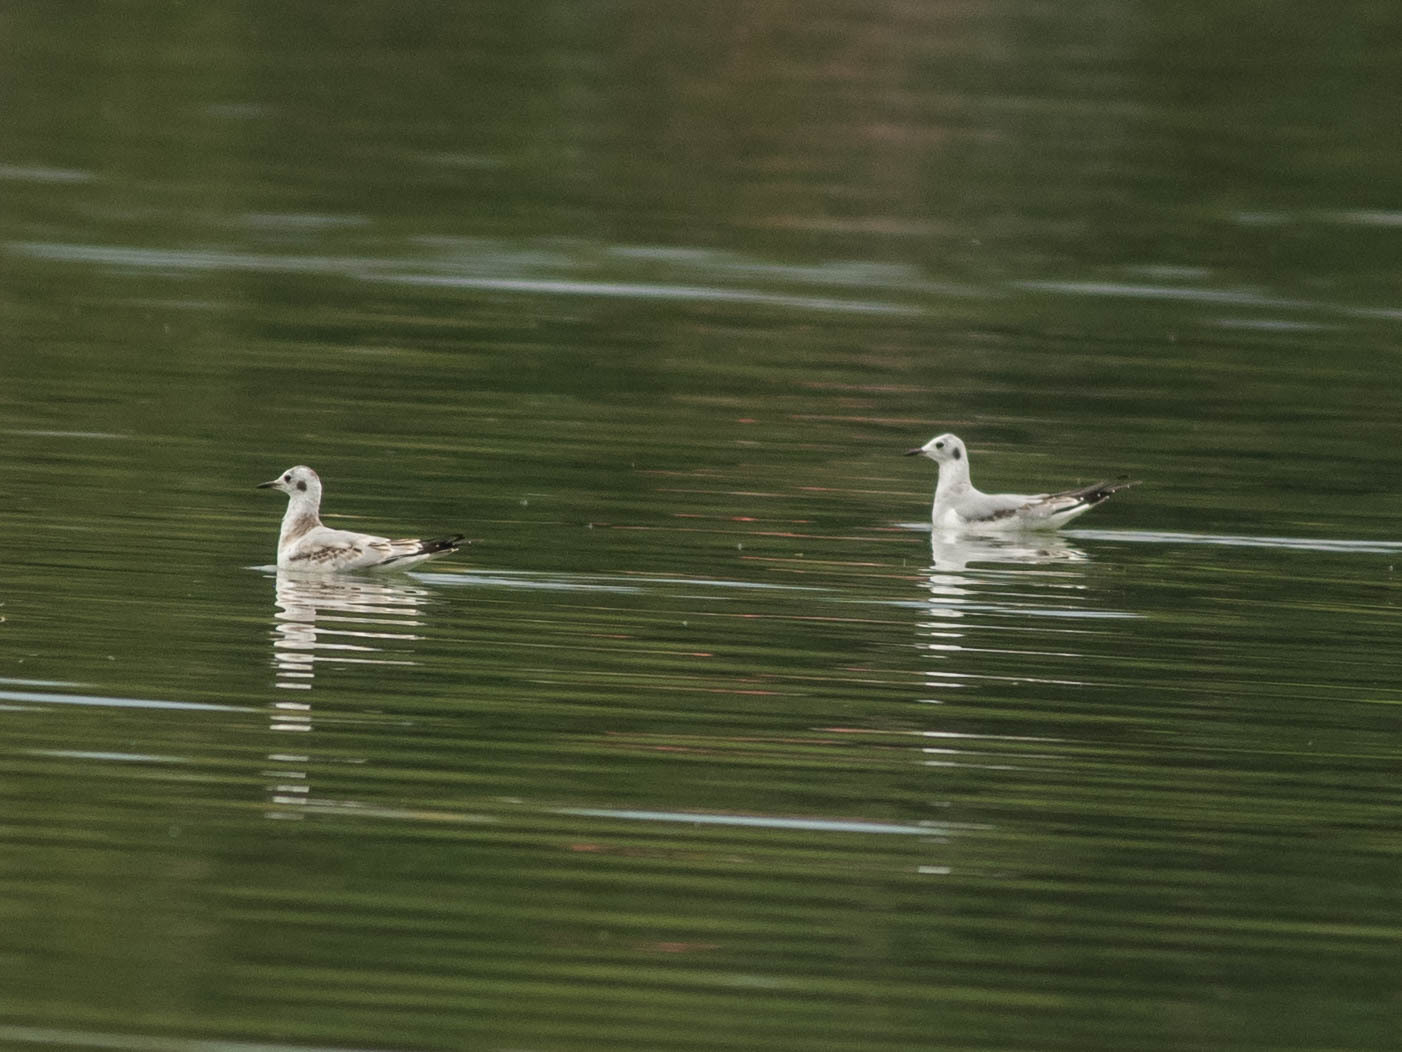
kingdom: Animalia
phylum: Chordata
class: Aves
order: Charadriiformes
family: Laridae
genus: Chroicocephalus
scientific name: Chroicocephalus philadelphia
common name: Bonaparte's gull
